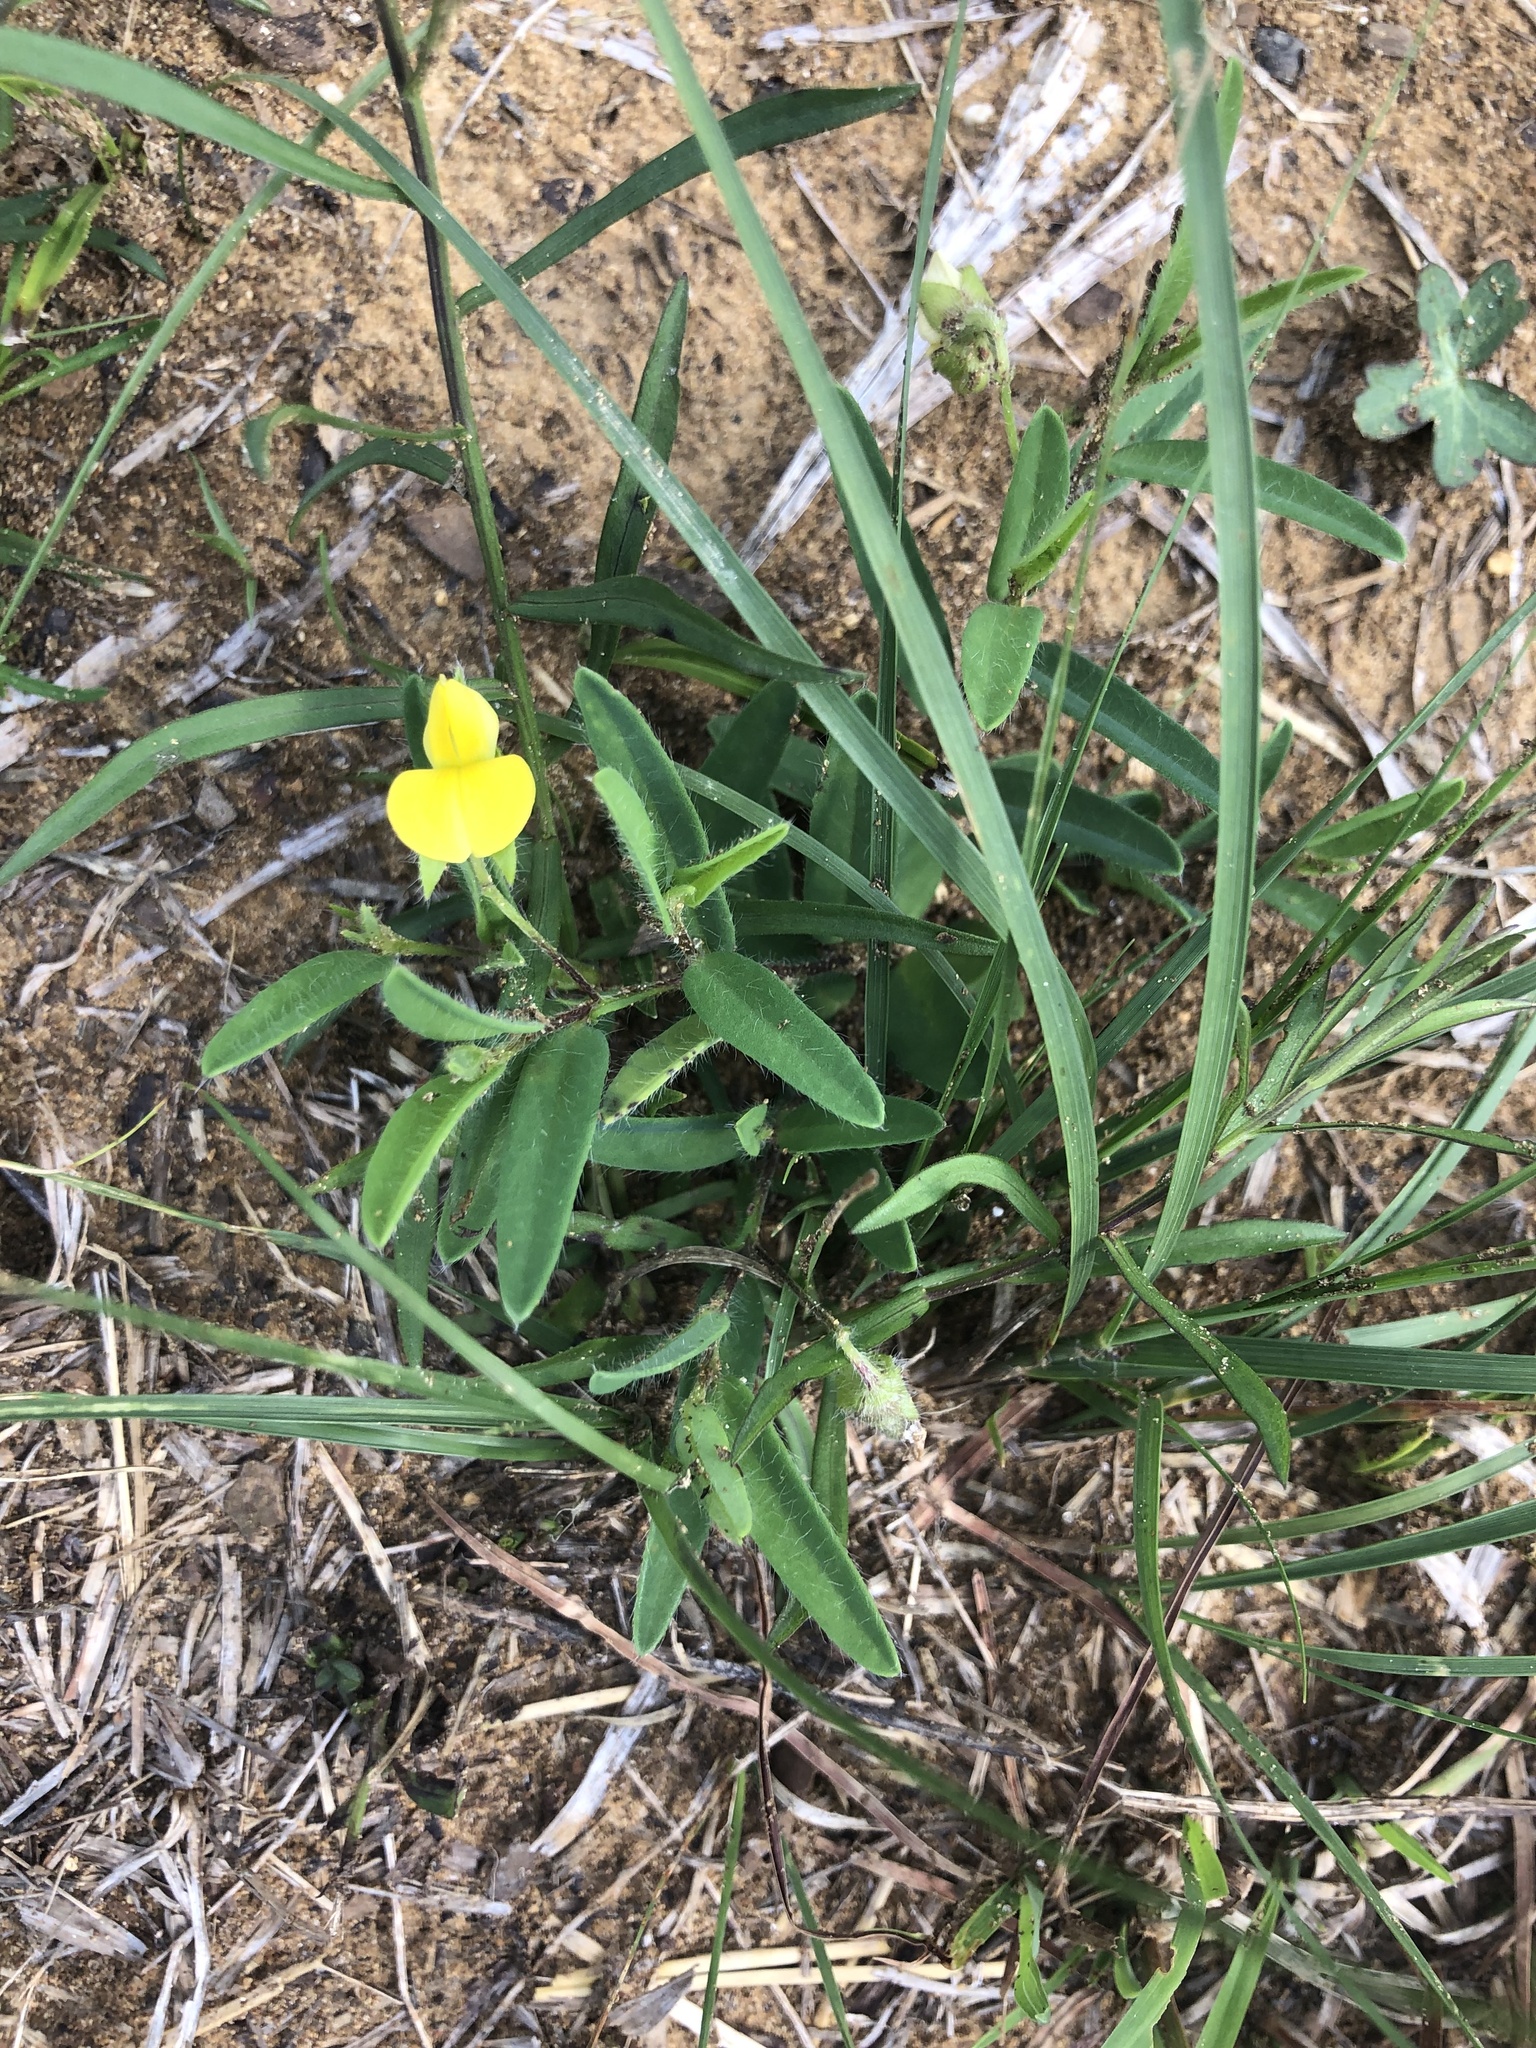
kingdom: Plantae
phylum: Tracheophyta
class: Magnoliopsida
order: Fabales
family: Fabaceae
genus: Crotalaria
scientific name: Crotalaria sagittalis
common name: Arrowhead rattlebox
